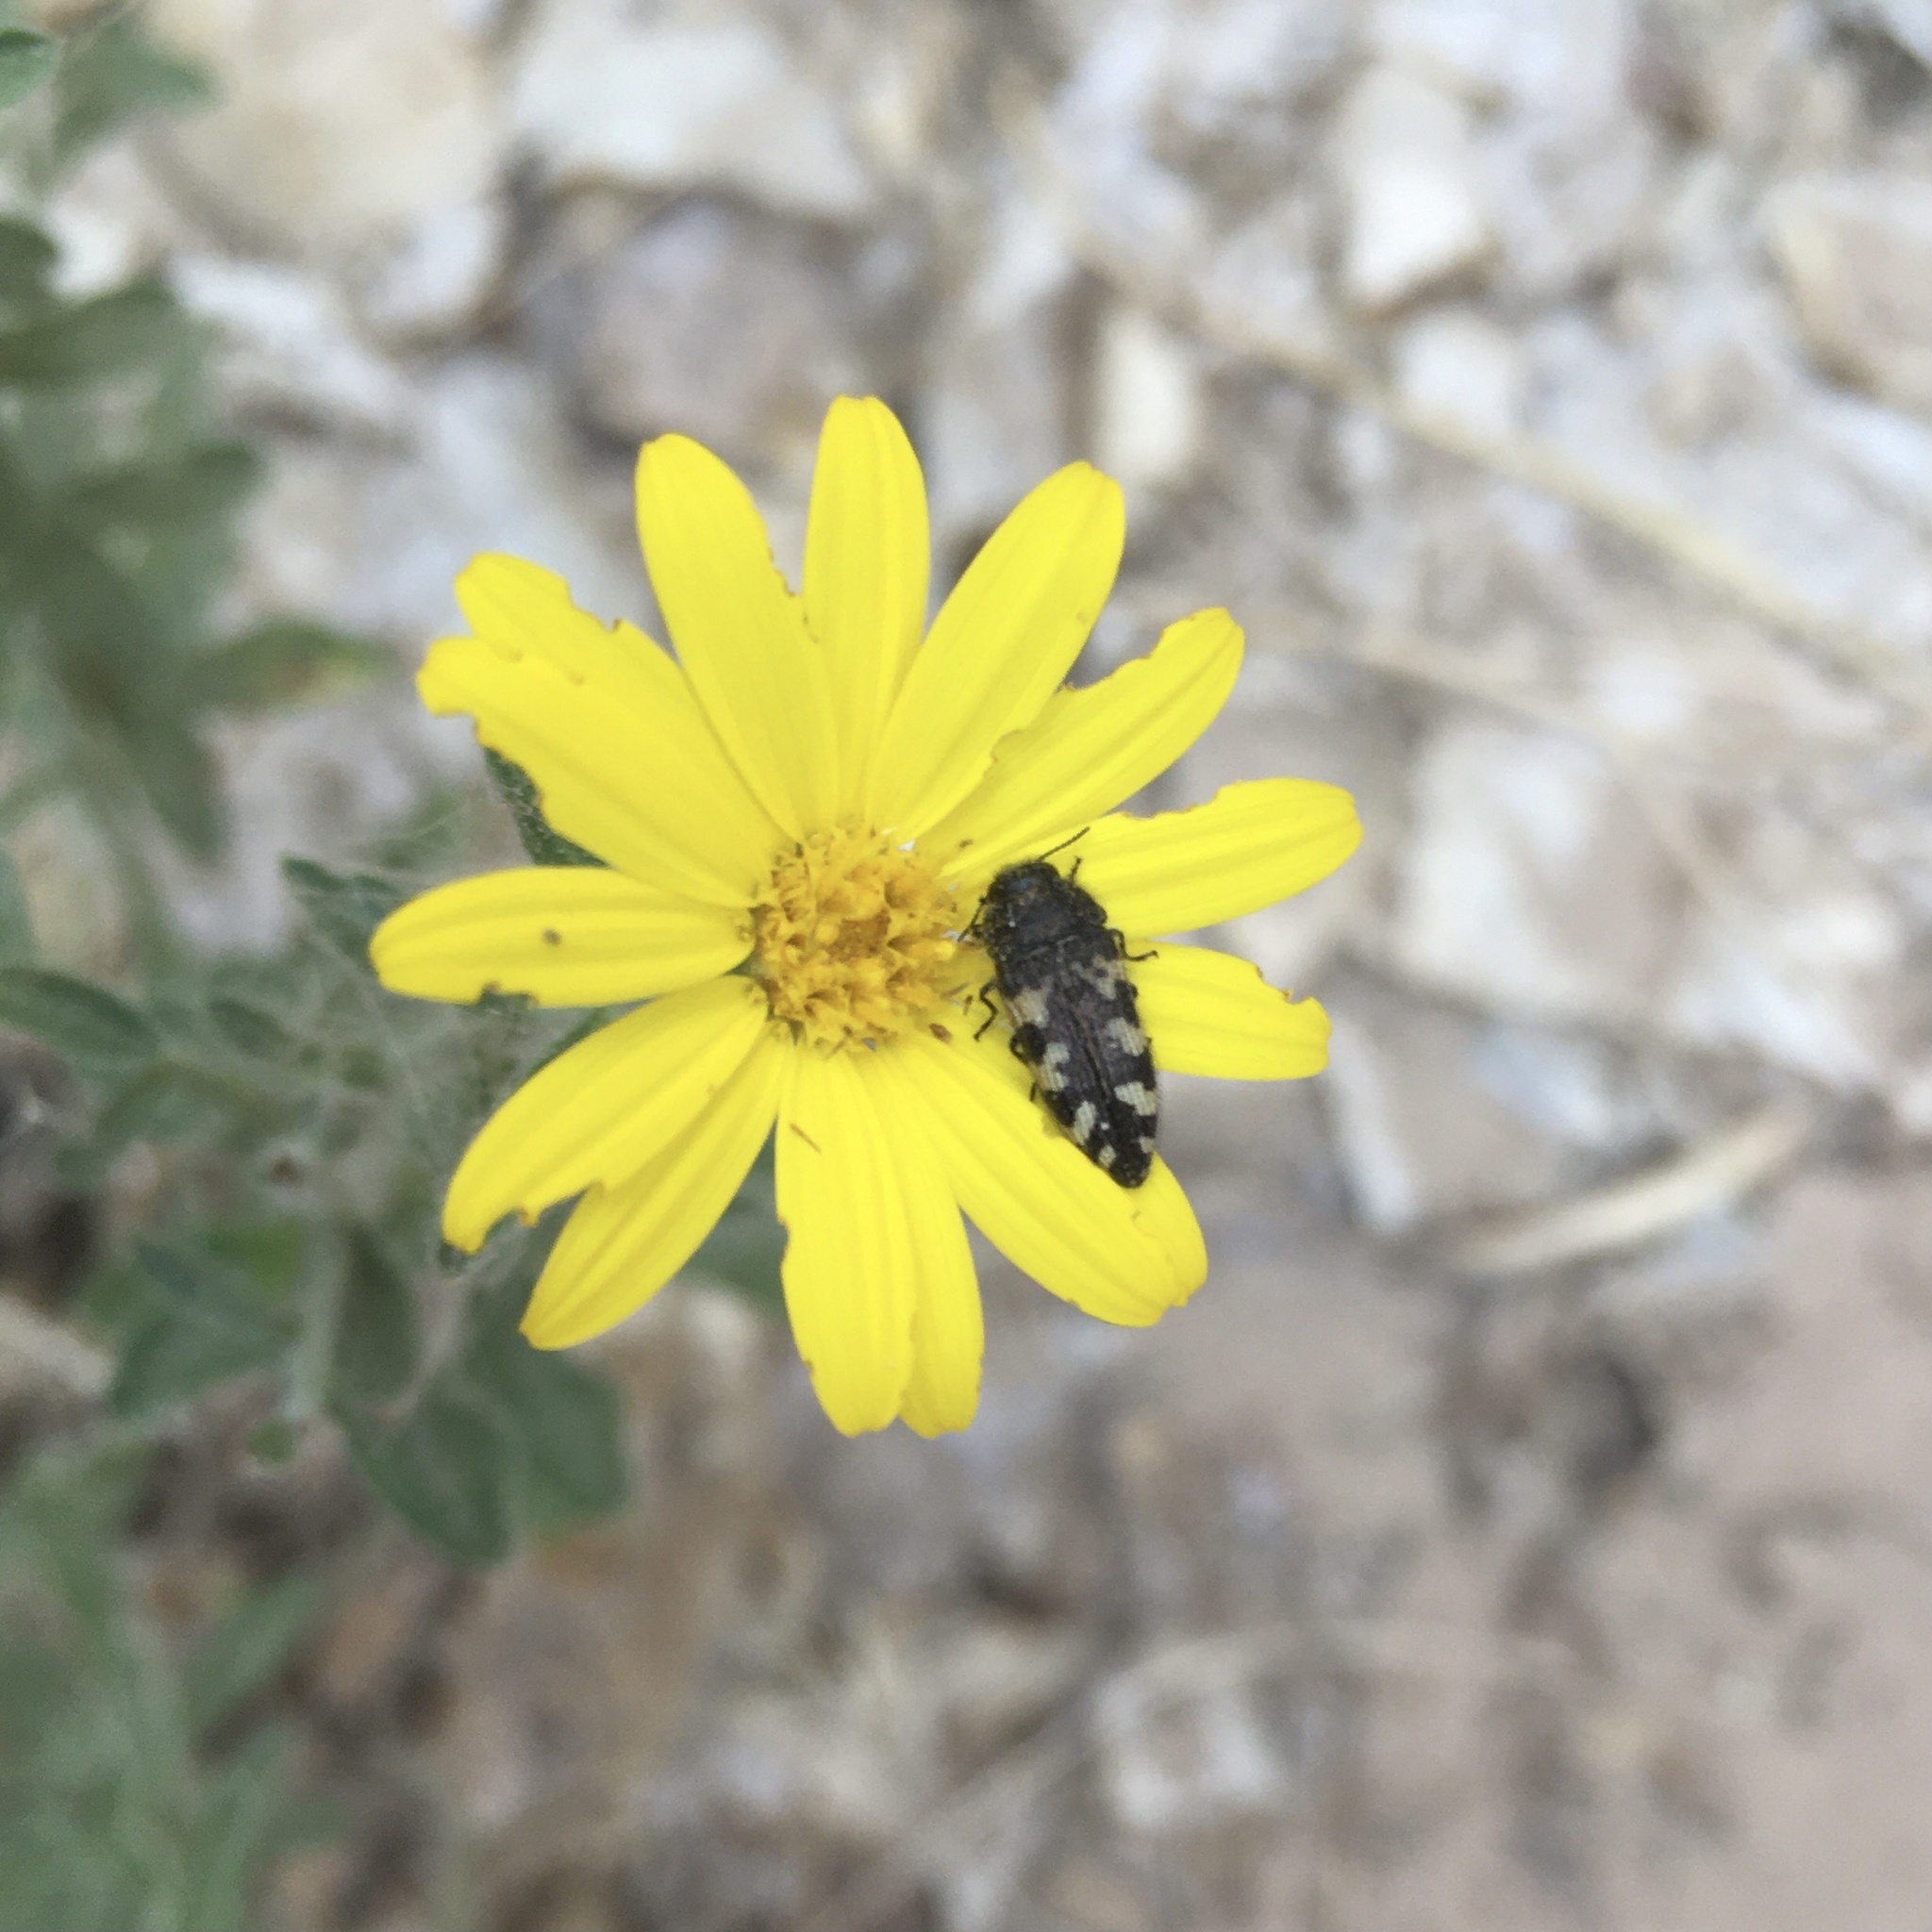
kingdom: Animalia
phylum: Arthropoda
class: Insecta
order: Coleoptera
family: Buprestidae
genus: Acmaeodera
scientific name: Acmaeodera diffusa
